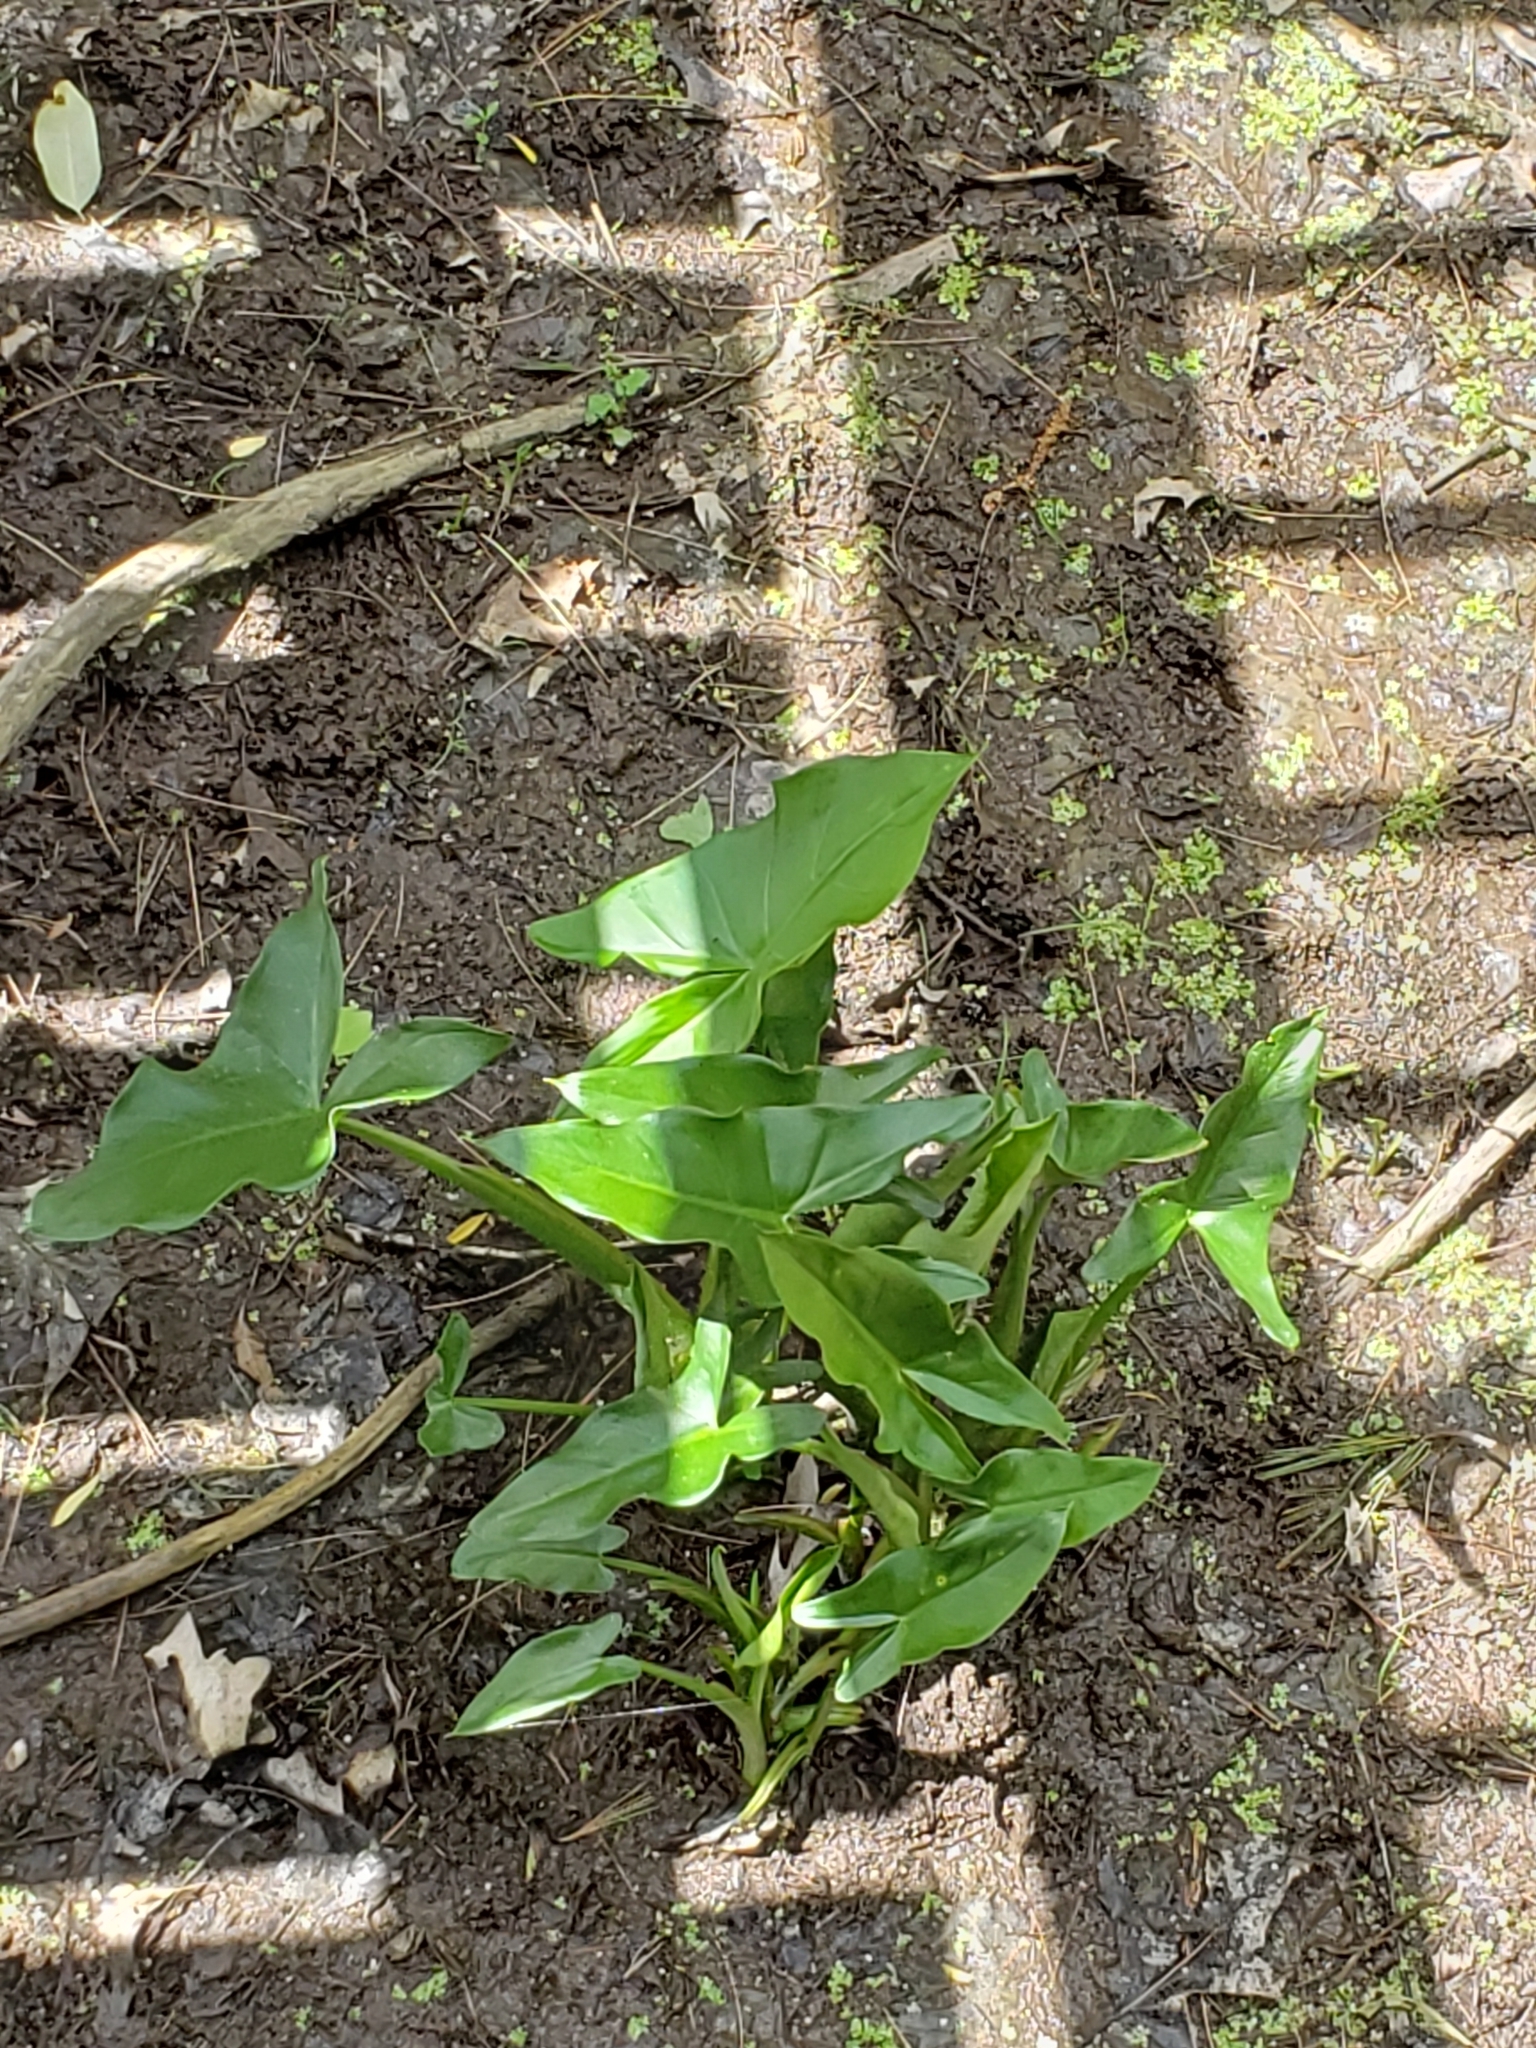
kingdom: Plantae
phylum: Tracheophyta
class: Liliopsida
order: Alismatales
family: Araceae
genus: Peltandra
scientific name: Peltandra virginica
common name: Arrow arum
